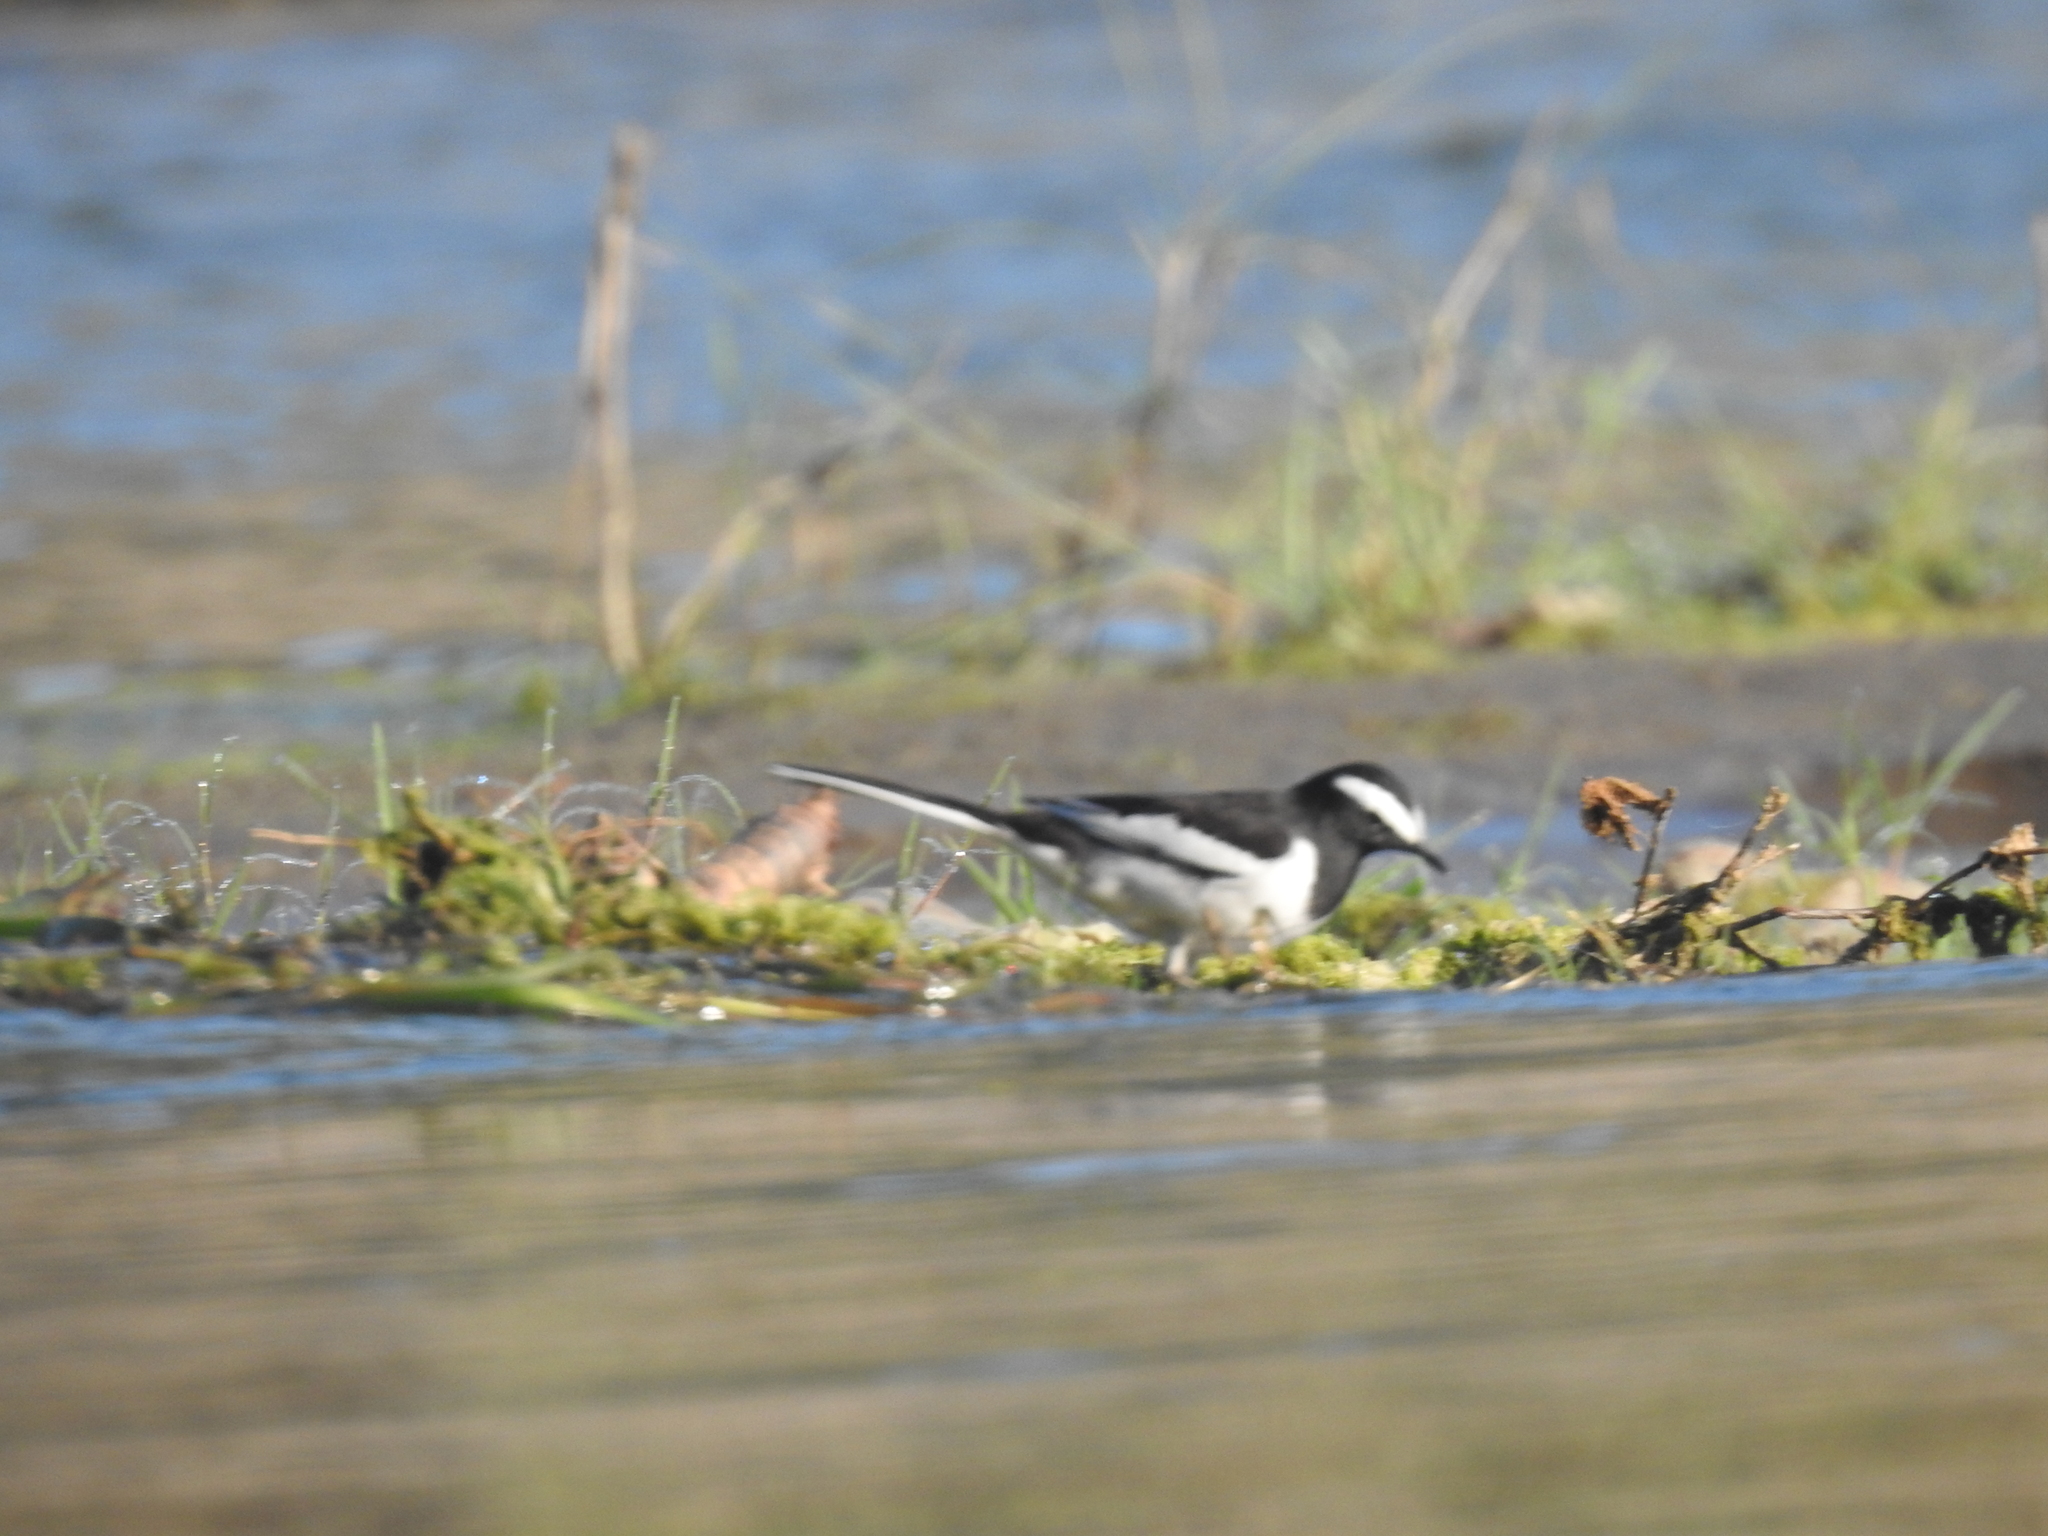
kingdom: Animalia
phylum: Chordata
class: Aves
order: Passeriformes
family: Motacillidae
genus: Motacilla
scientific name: Motacilla maderaspatensis
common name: White-browed wagtail
